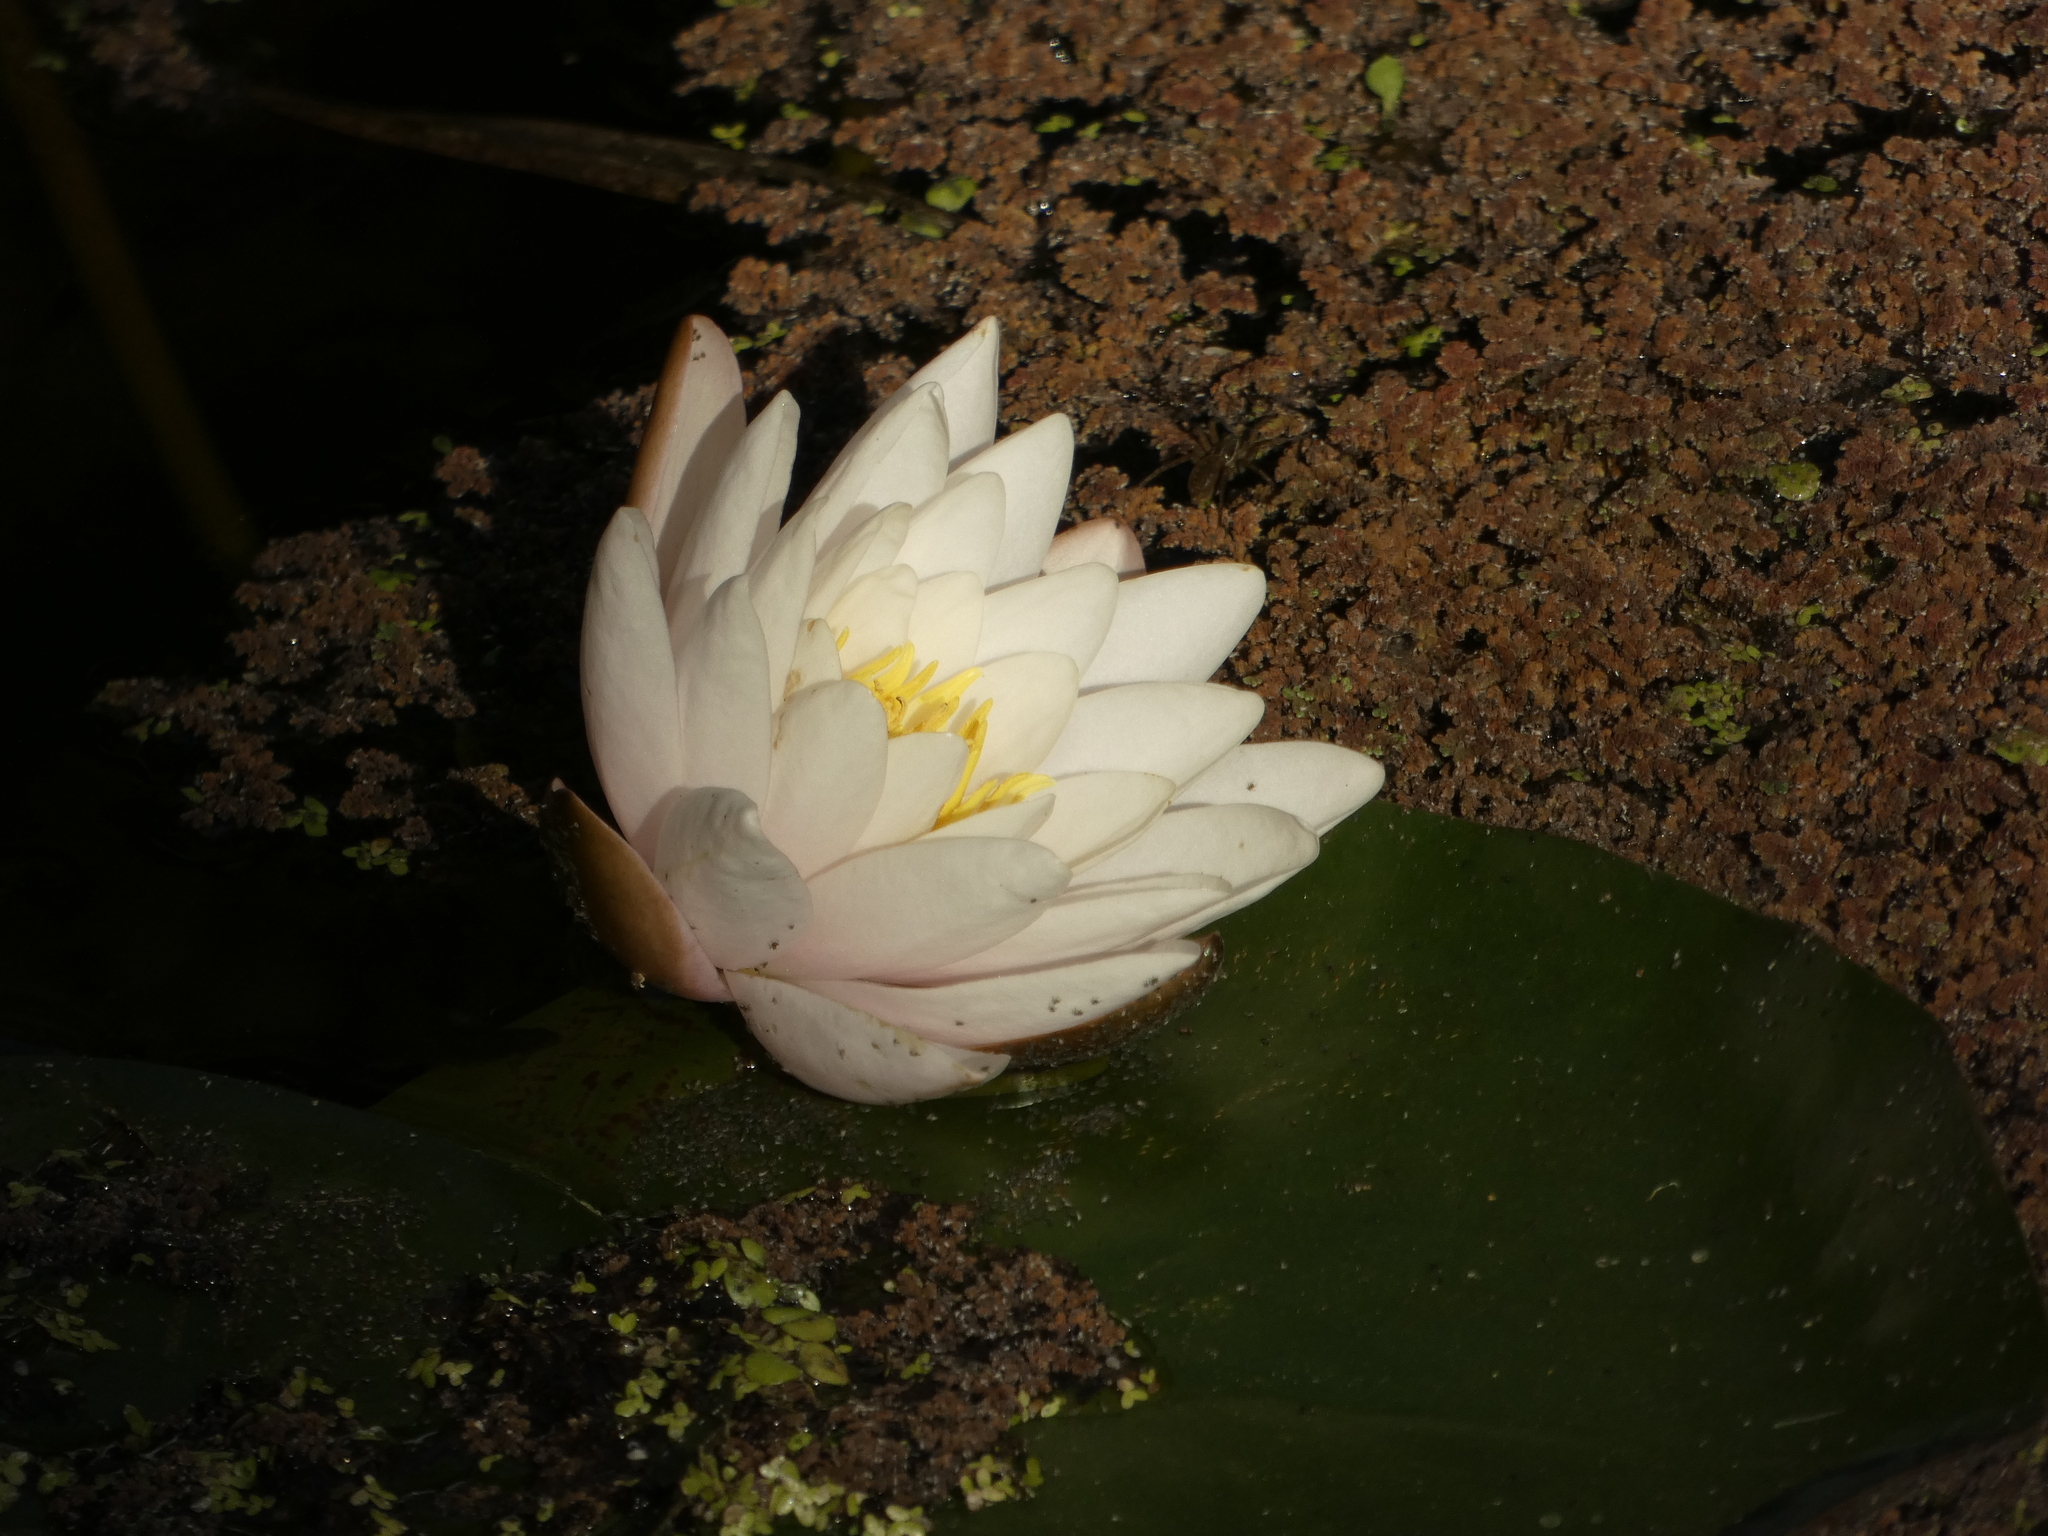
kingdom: Plantae
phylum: Tracheophyta
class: Magnoliopsida
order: Nymphaeales
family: Nymphaeaceae
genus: Nymphaea
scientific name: Nymphaea alba
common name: White water-lily
